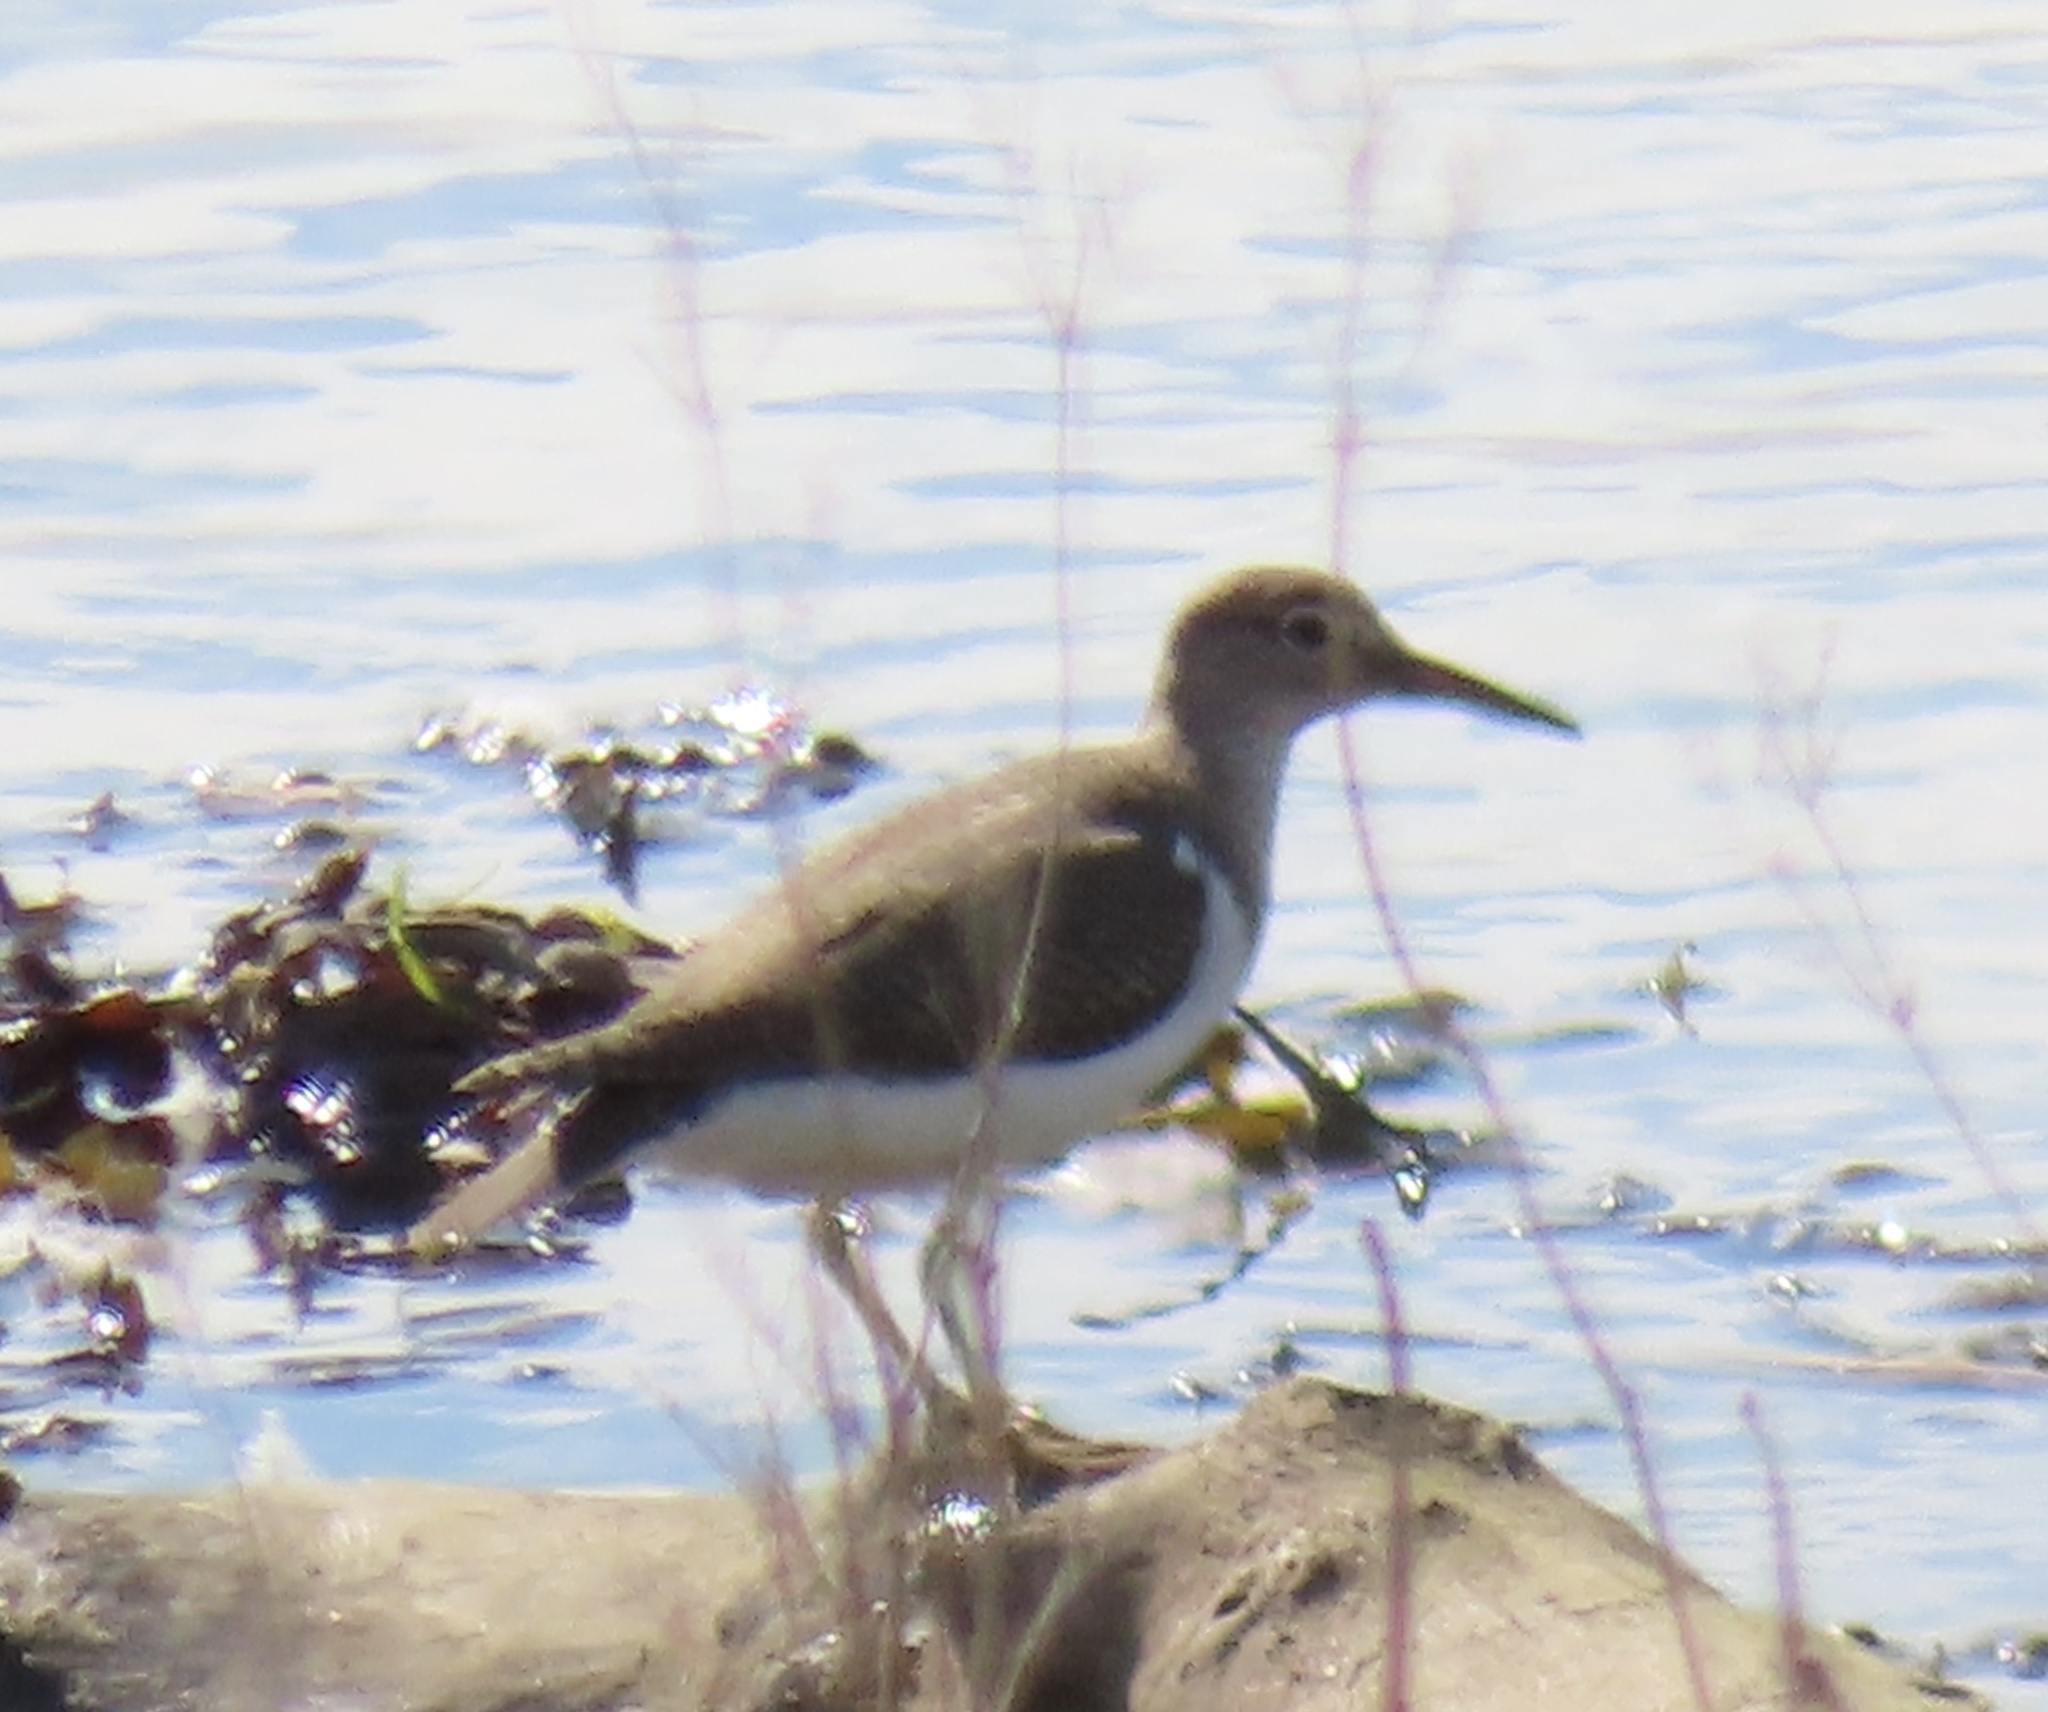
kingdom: Animalia
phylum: Chordata
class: Aves
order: Charadriiformes
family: Scolopacidae
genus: Actitis
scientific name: Actitis hypoleucos
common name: Common sandpiper
